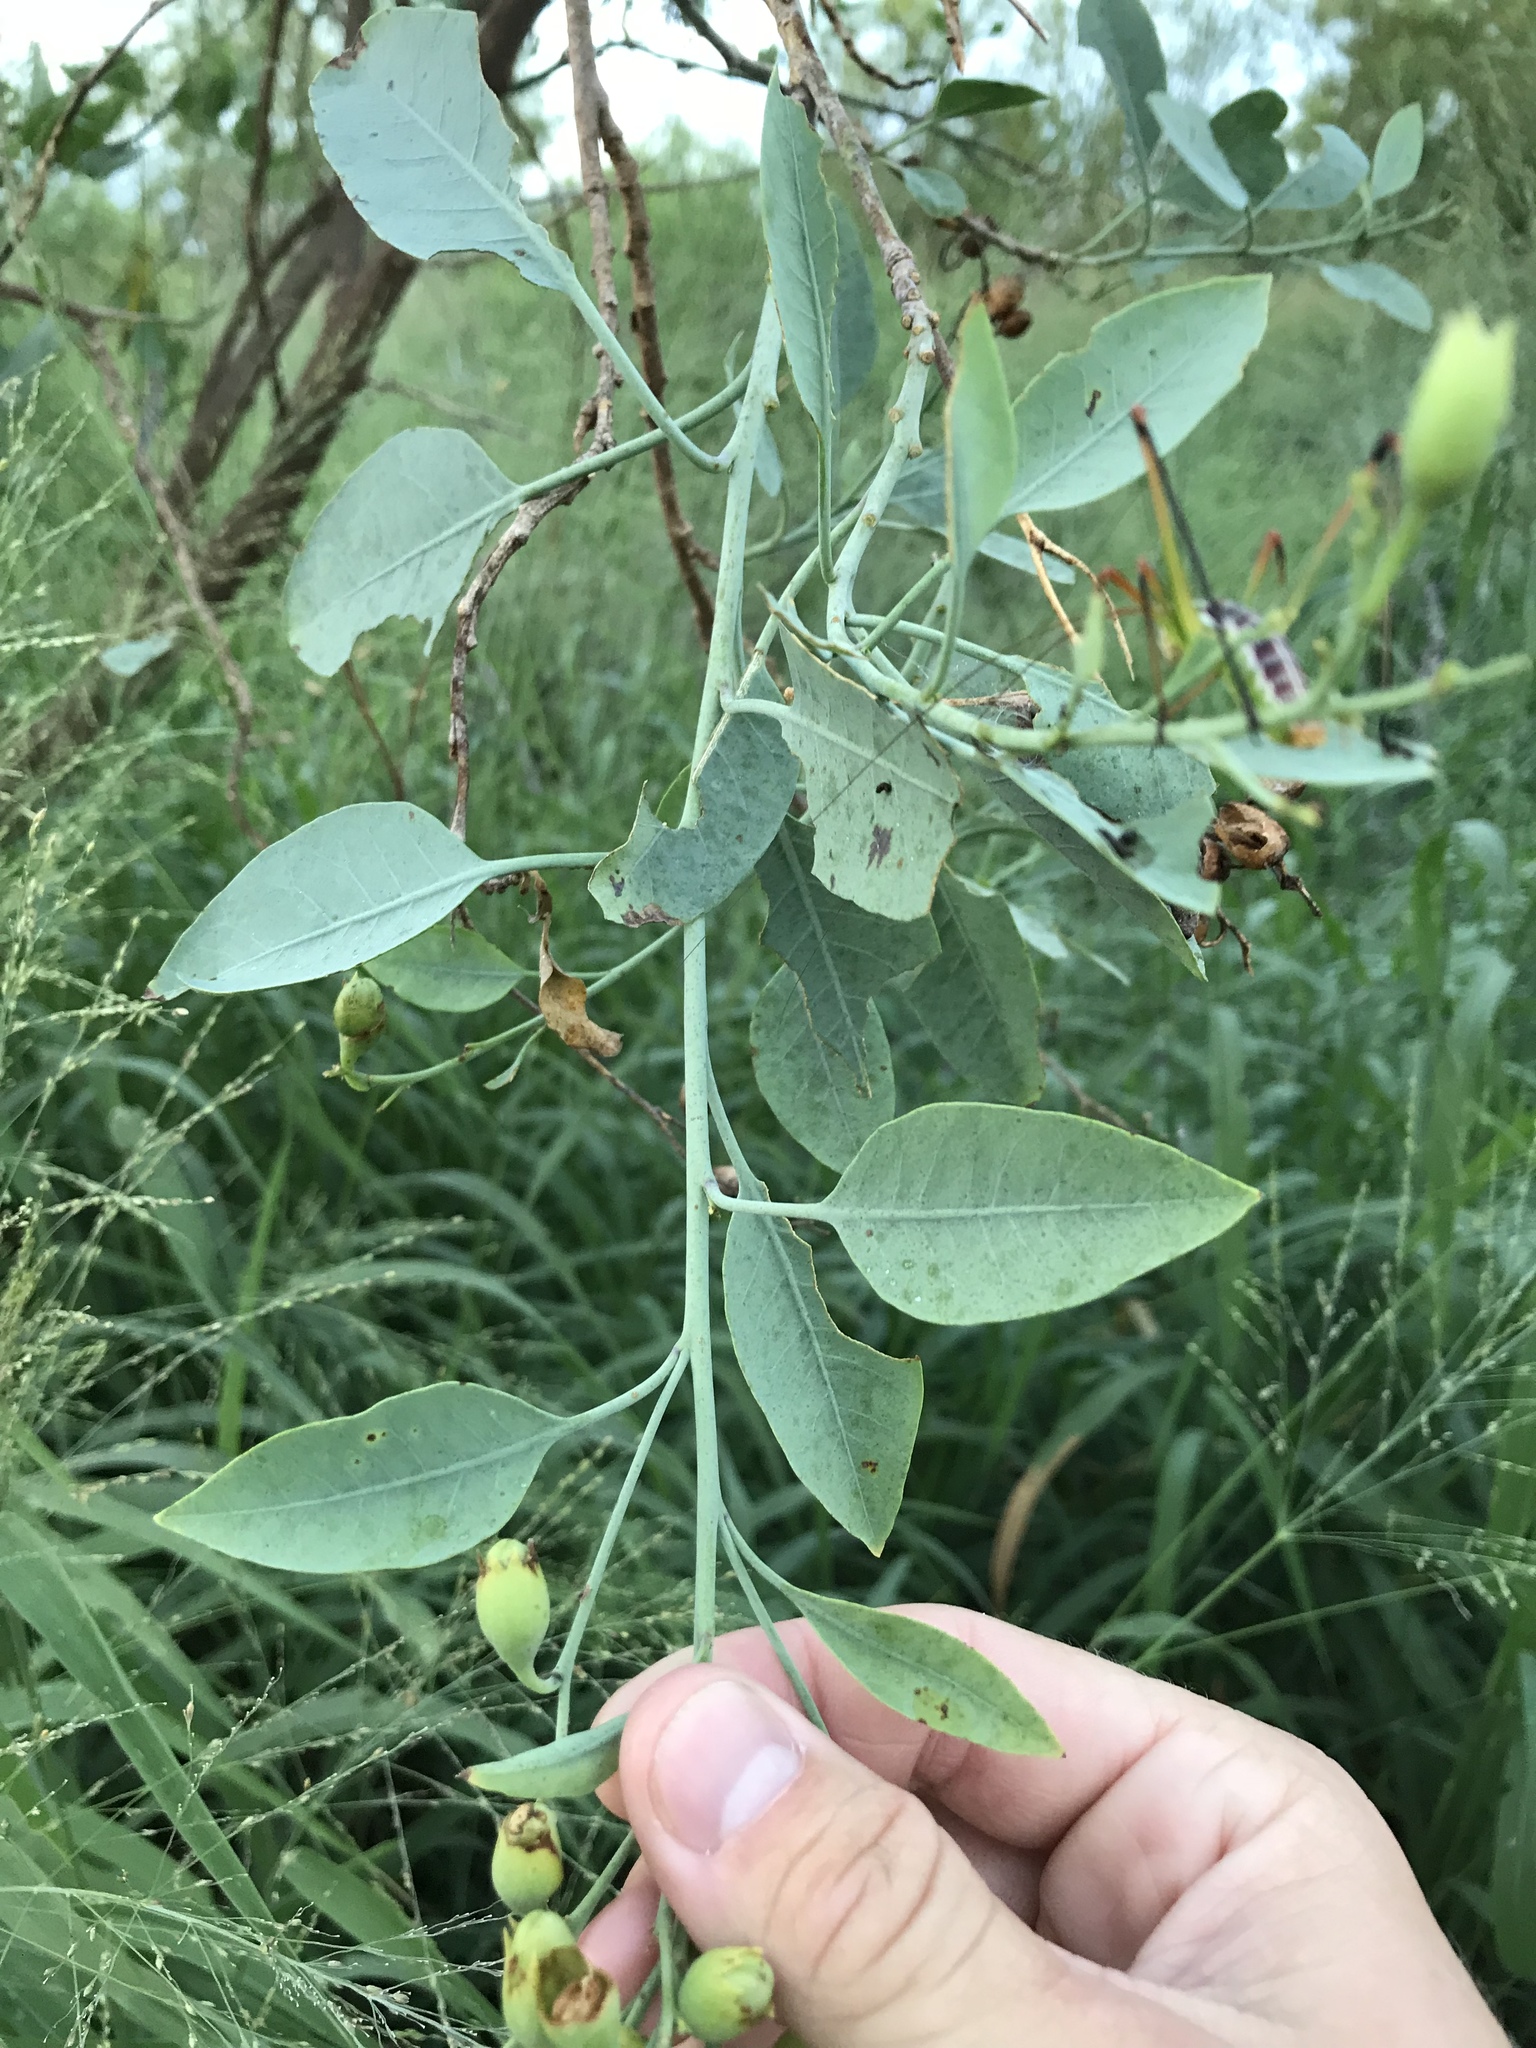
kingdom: Plantae
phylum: Tracheophyta
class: Magnoliopsida
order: Solanales
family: Solanaceae
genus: Nicotiana
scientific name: Nicotiana glauca
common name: Tree tobacco
